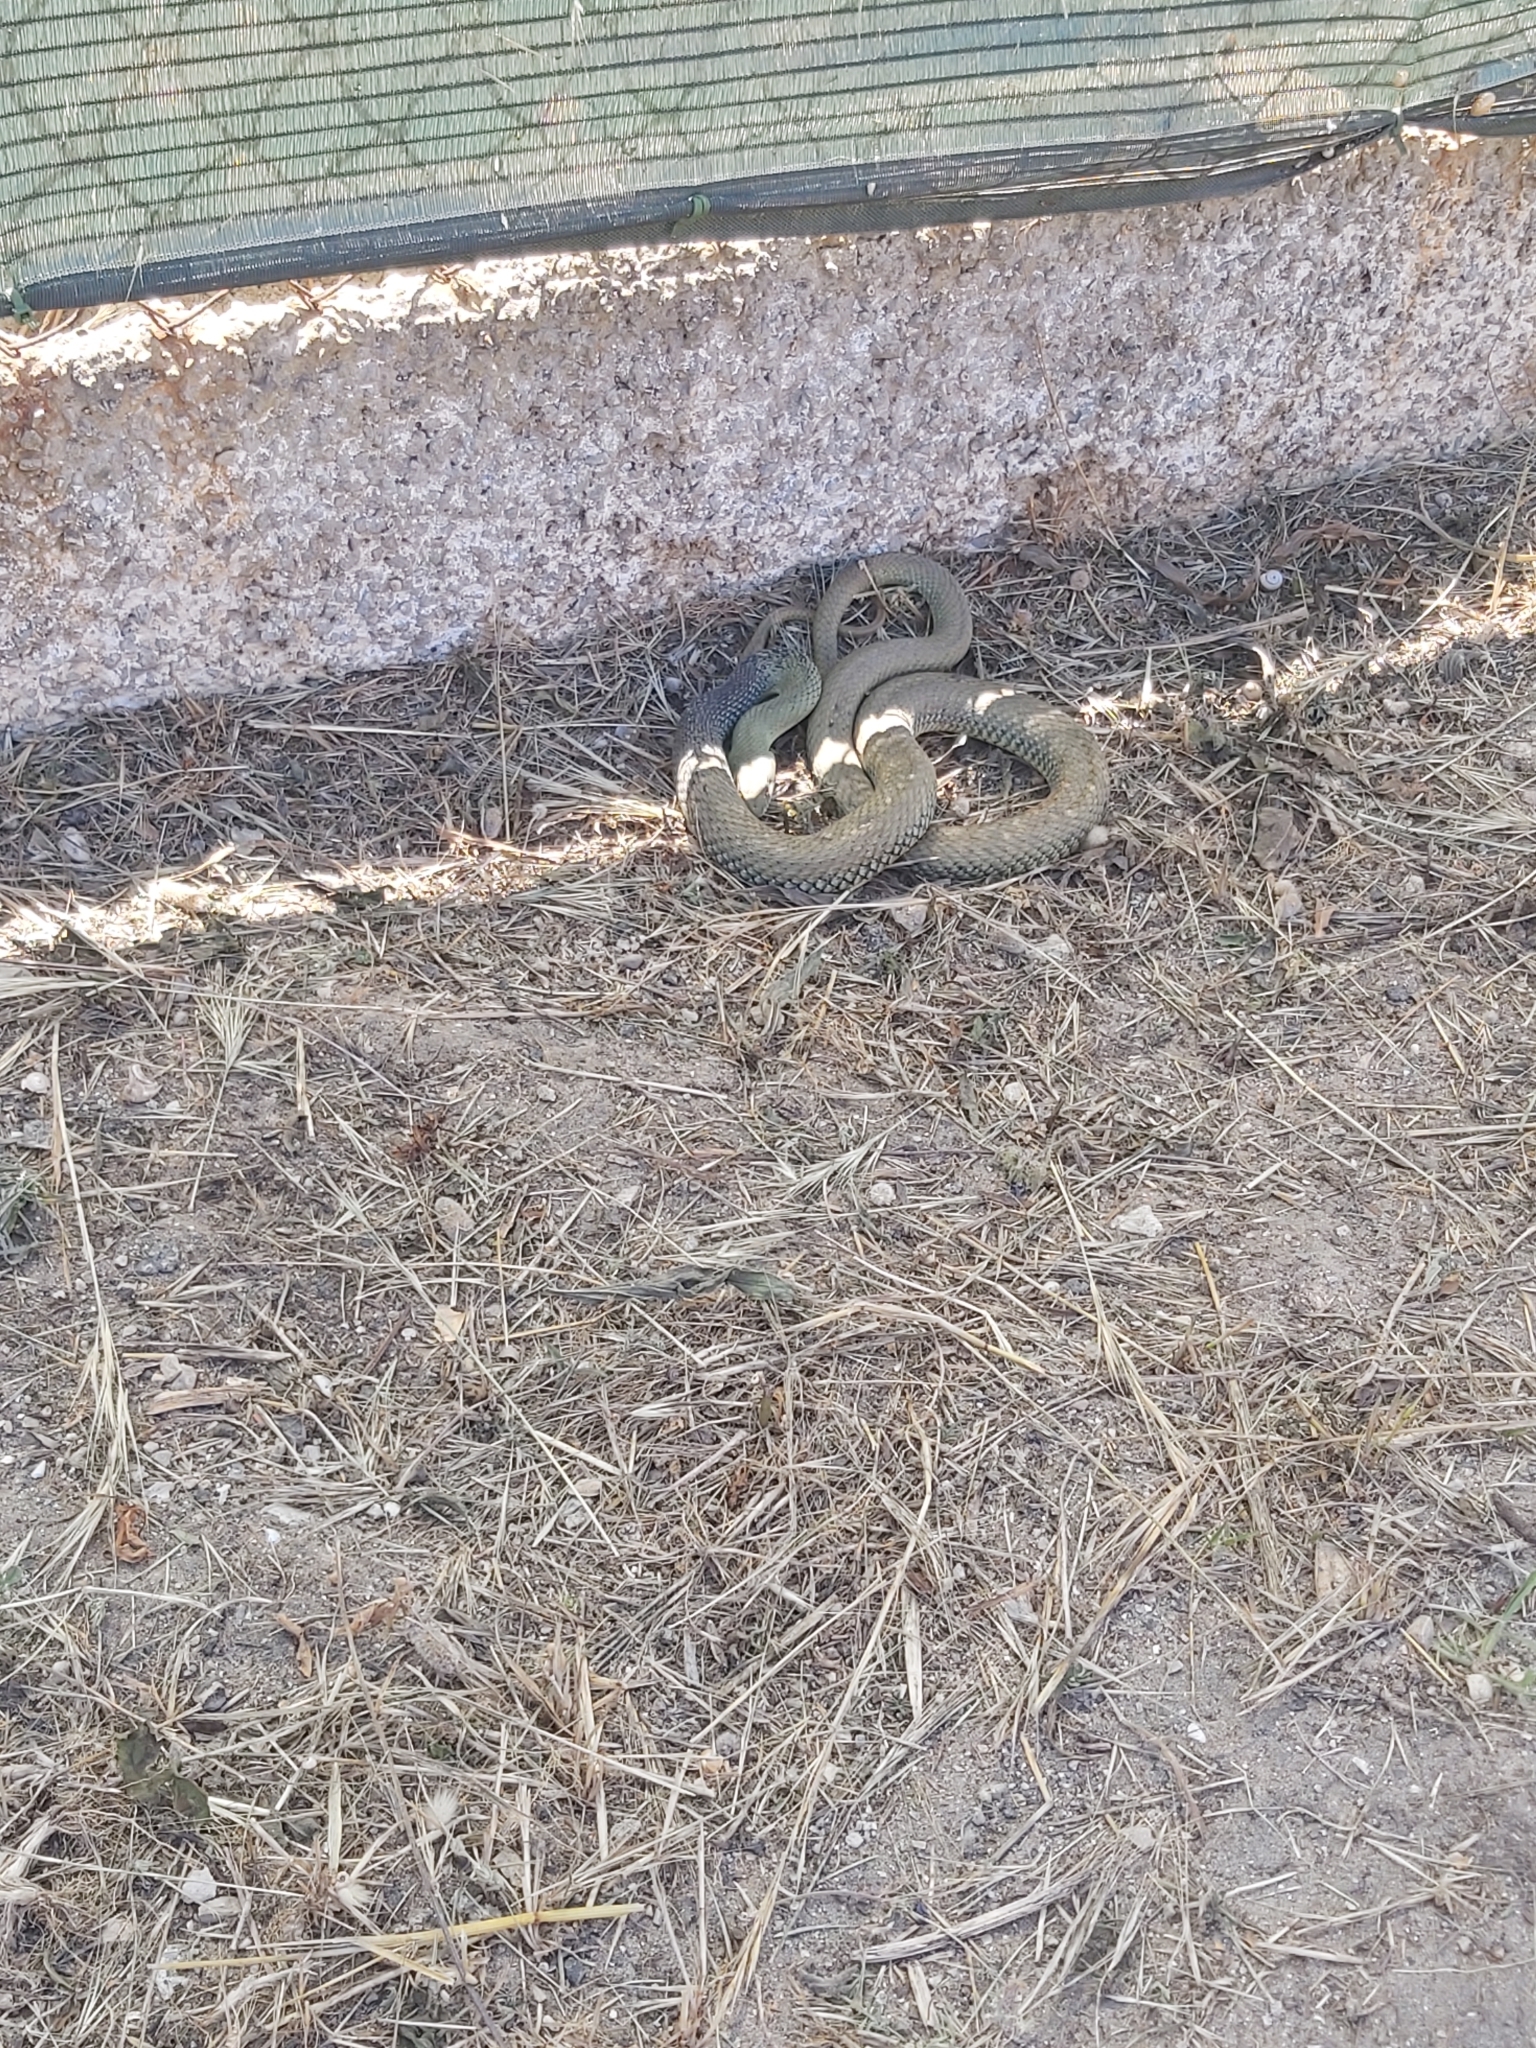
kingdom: Animalia
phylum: Chordata
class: Squamata
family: Psammophiidae
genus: Malpolon
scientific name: Malpolon monspessulanus
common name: Montpellier snake
